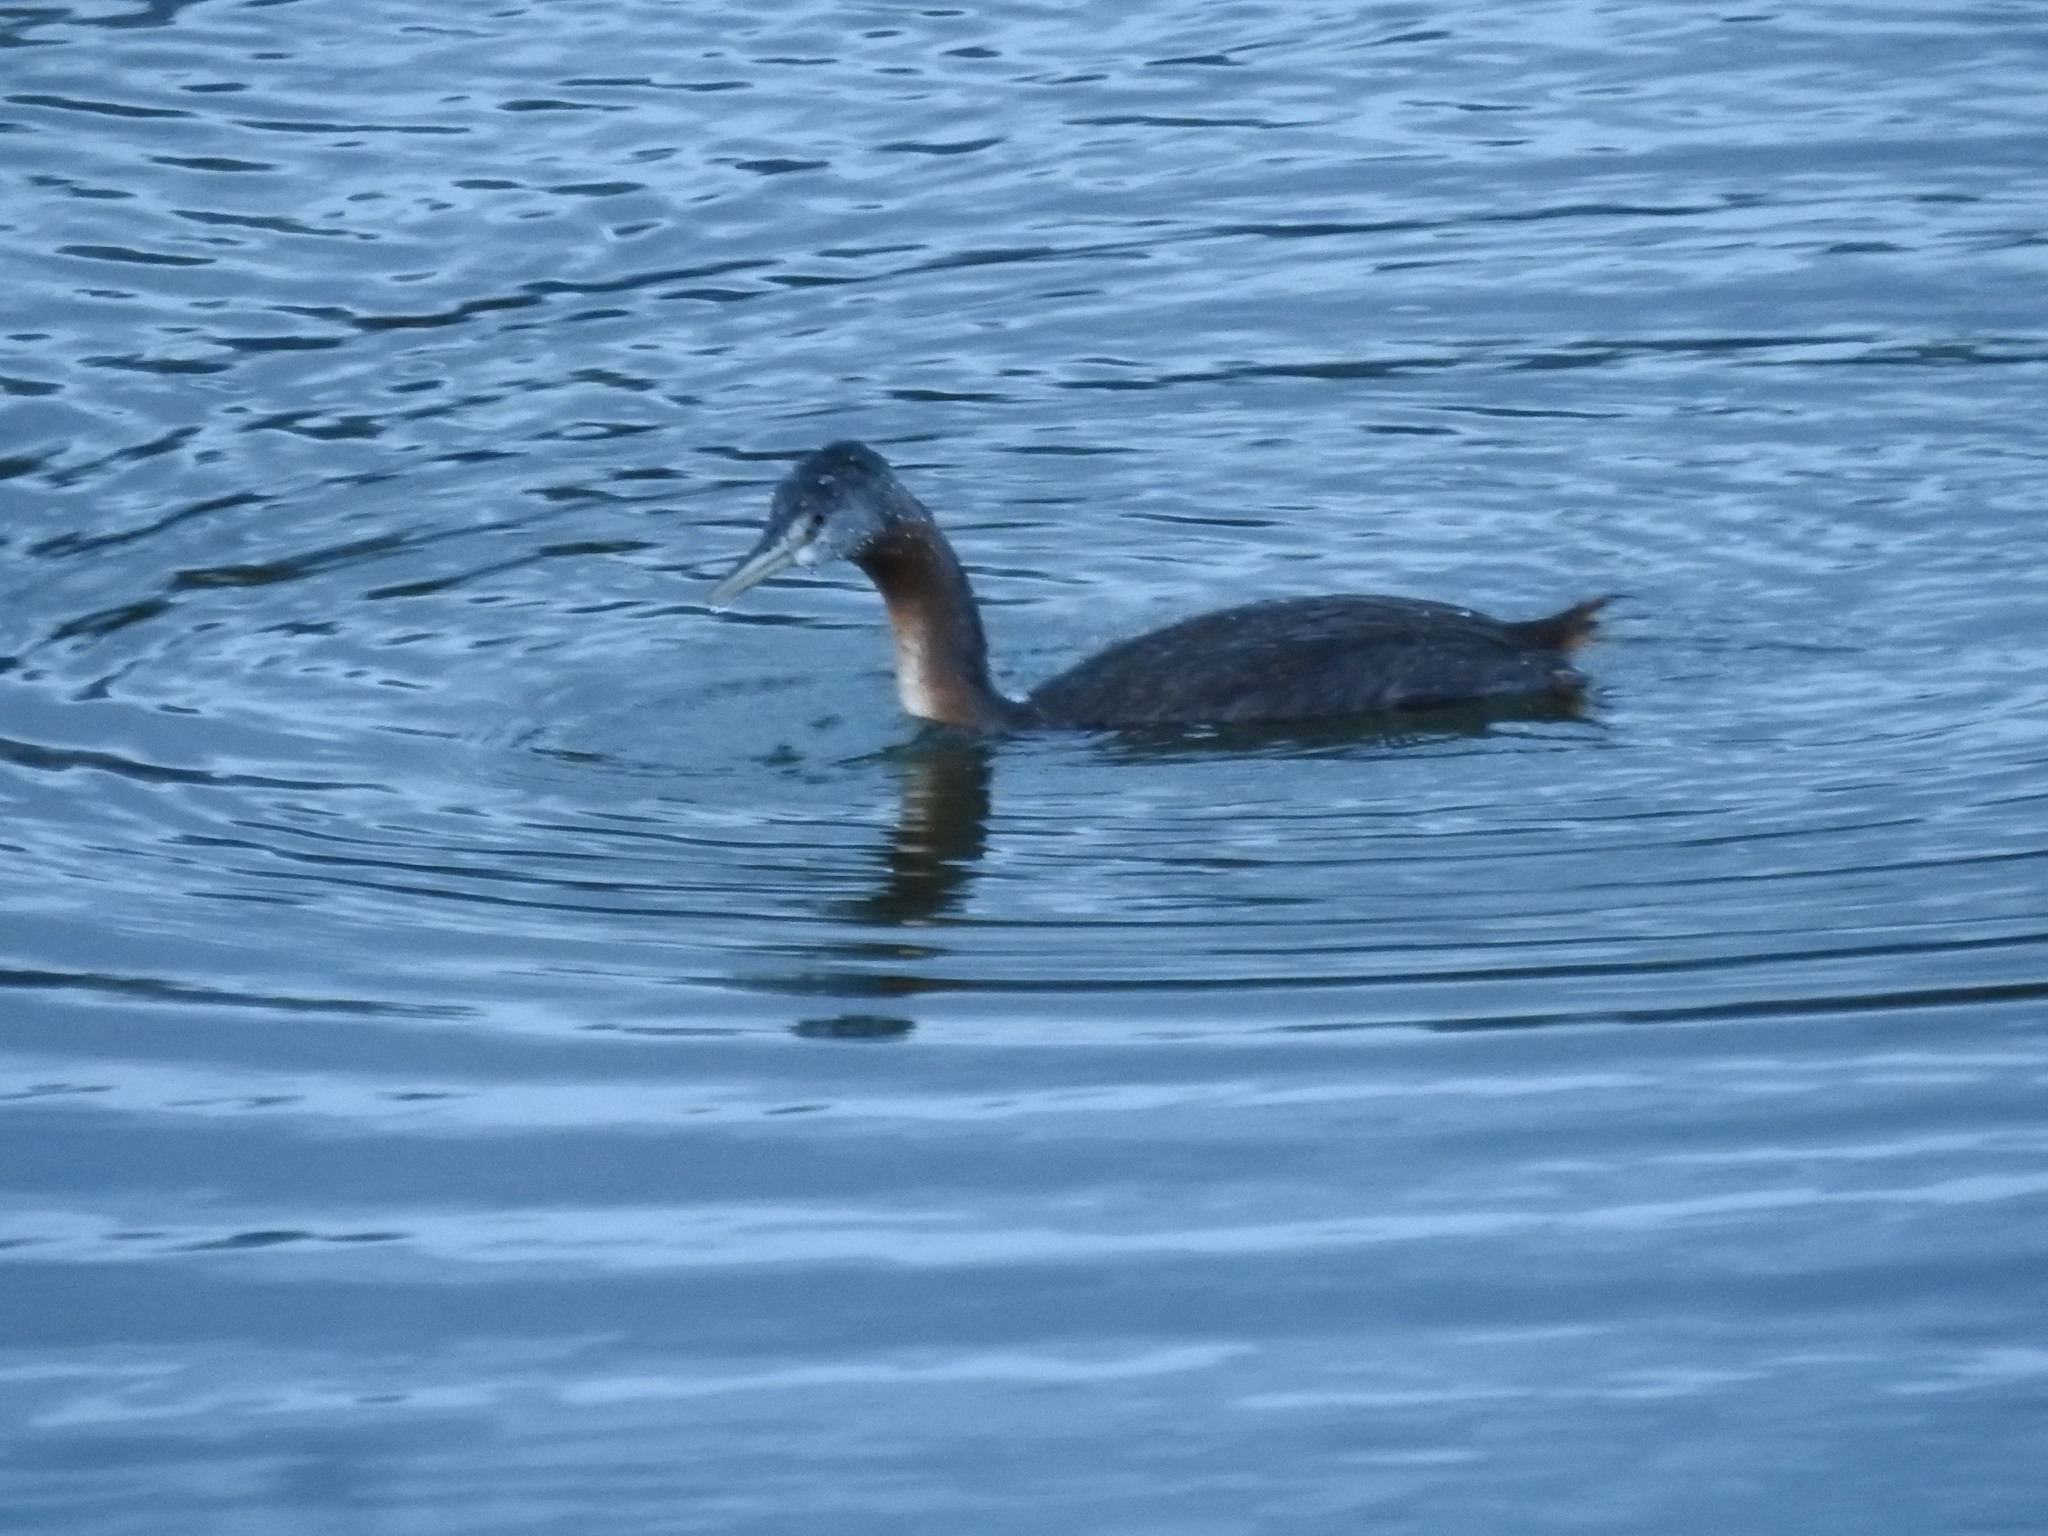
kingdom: Animalia
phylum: Chordata
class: Aves
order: Podicipediformes
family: Podicipedidae
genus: Podiceps
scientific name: Podiceps major
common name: Great grebe
